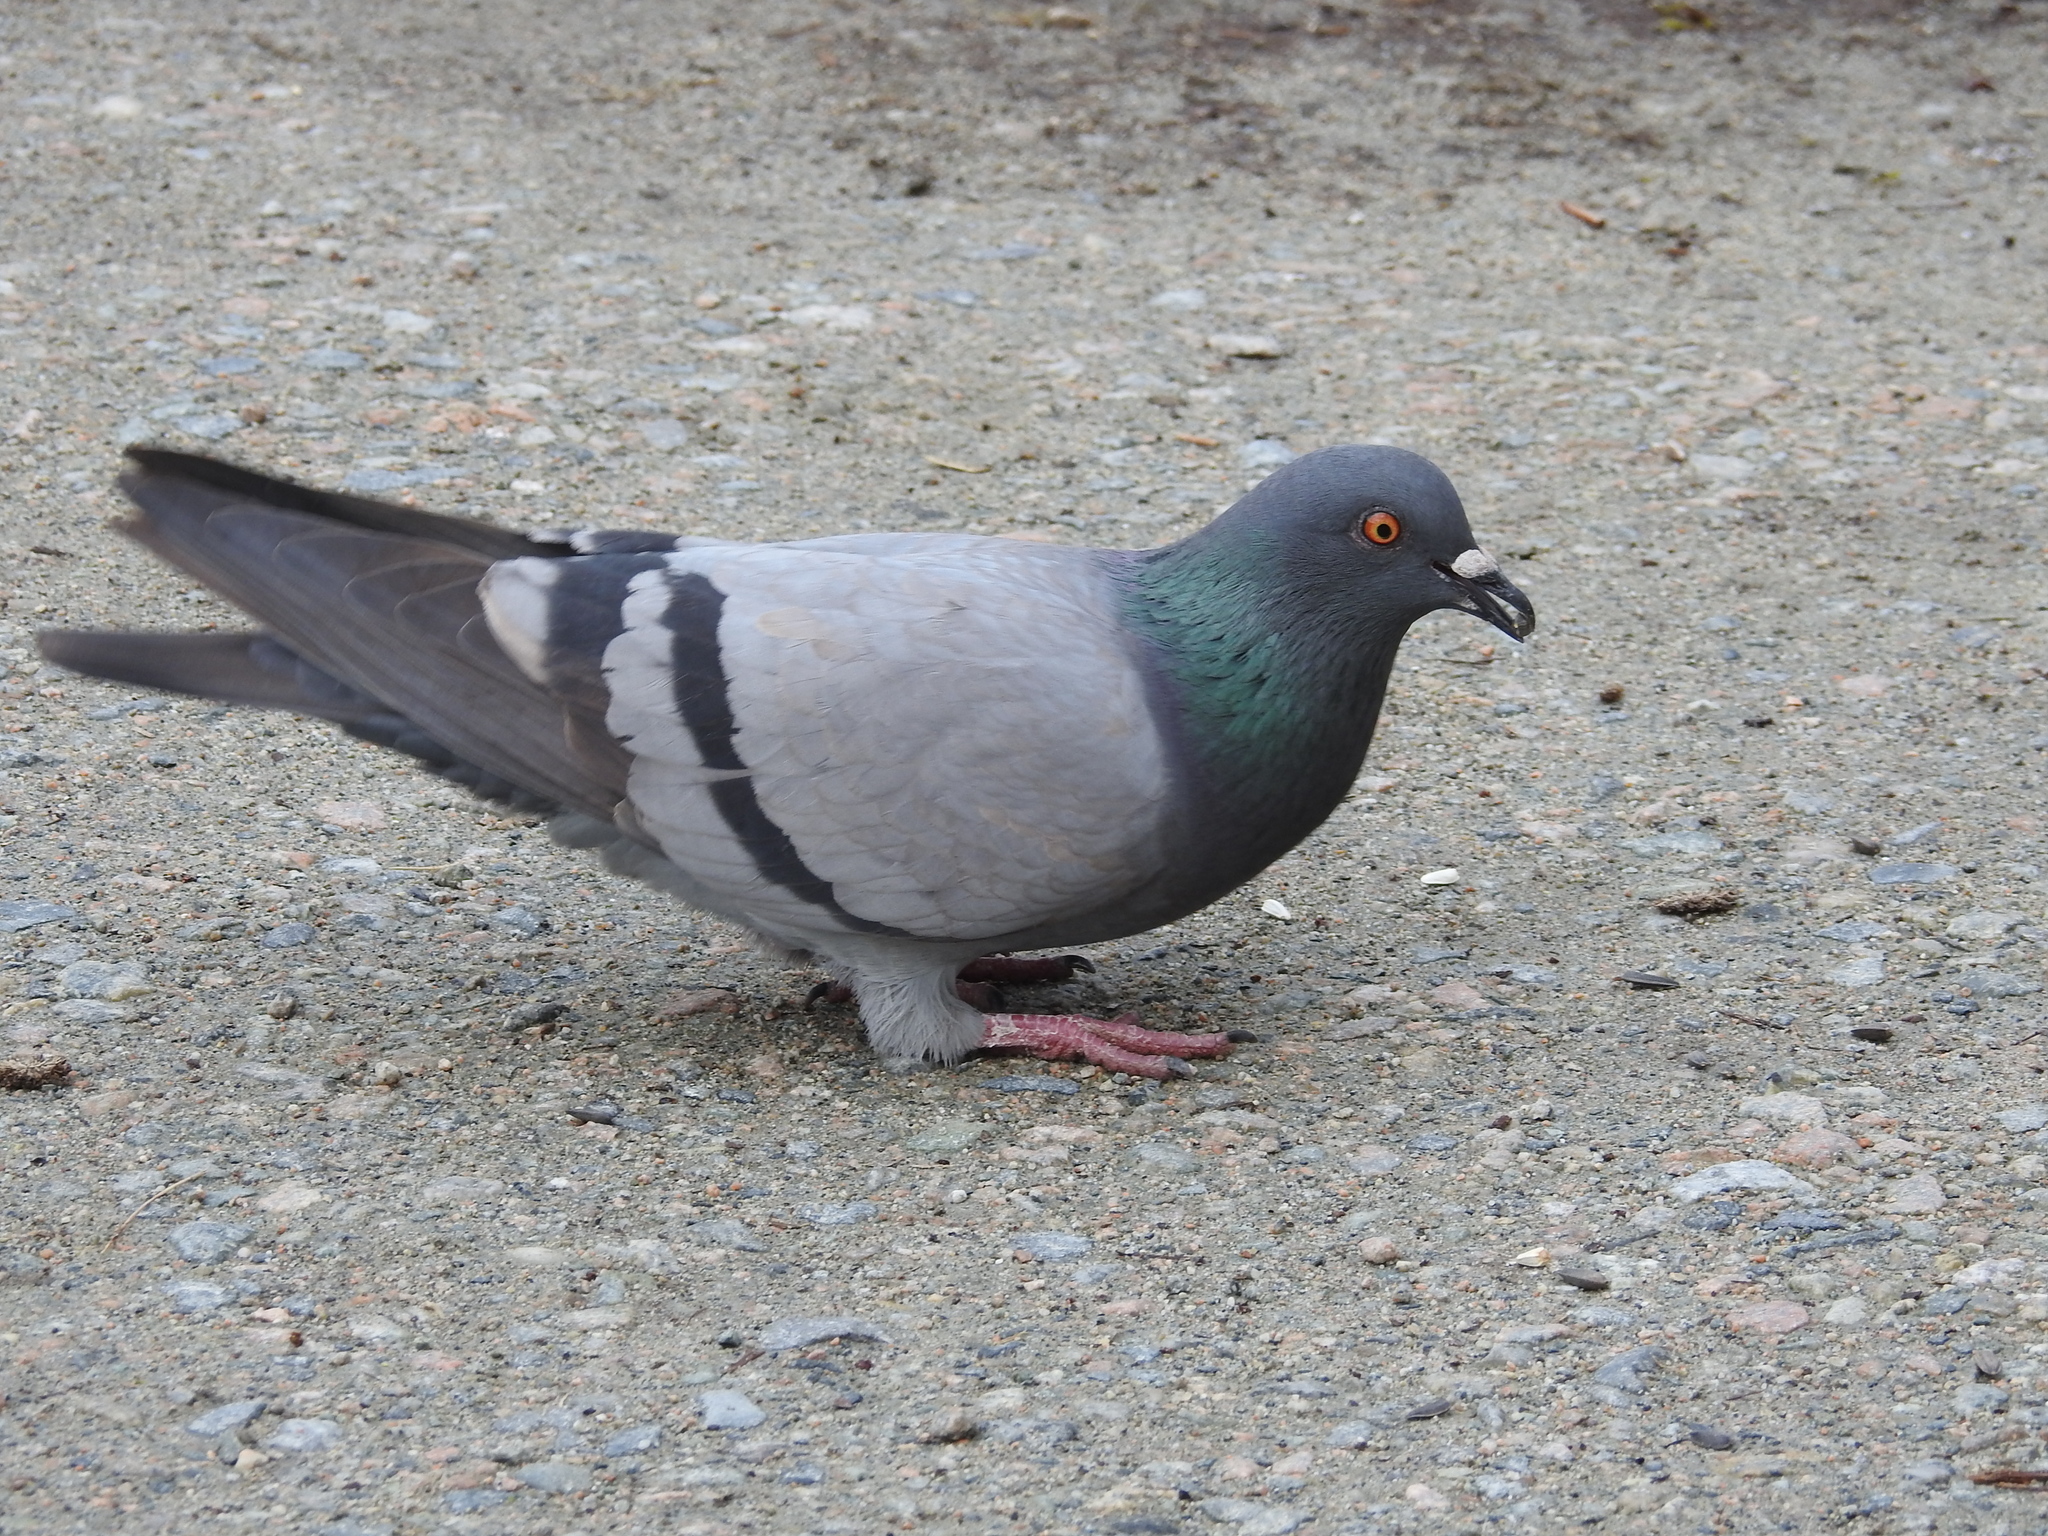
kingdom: Animalia
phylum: Chordata
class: Aves
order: Columbiformes
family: Columbidae
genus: Columba
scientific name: Columba livia
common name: Rock pigeon
